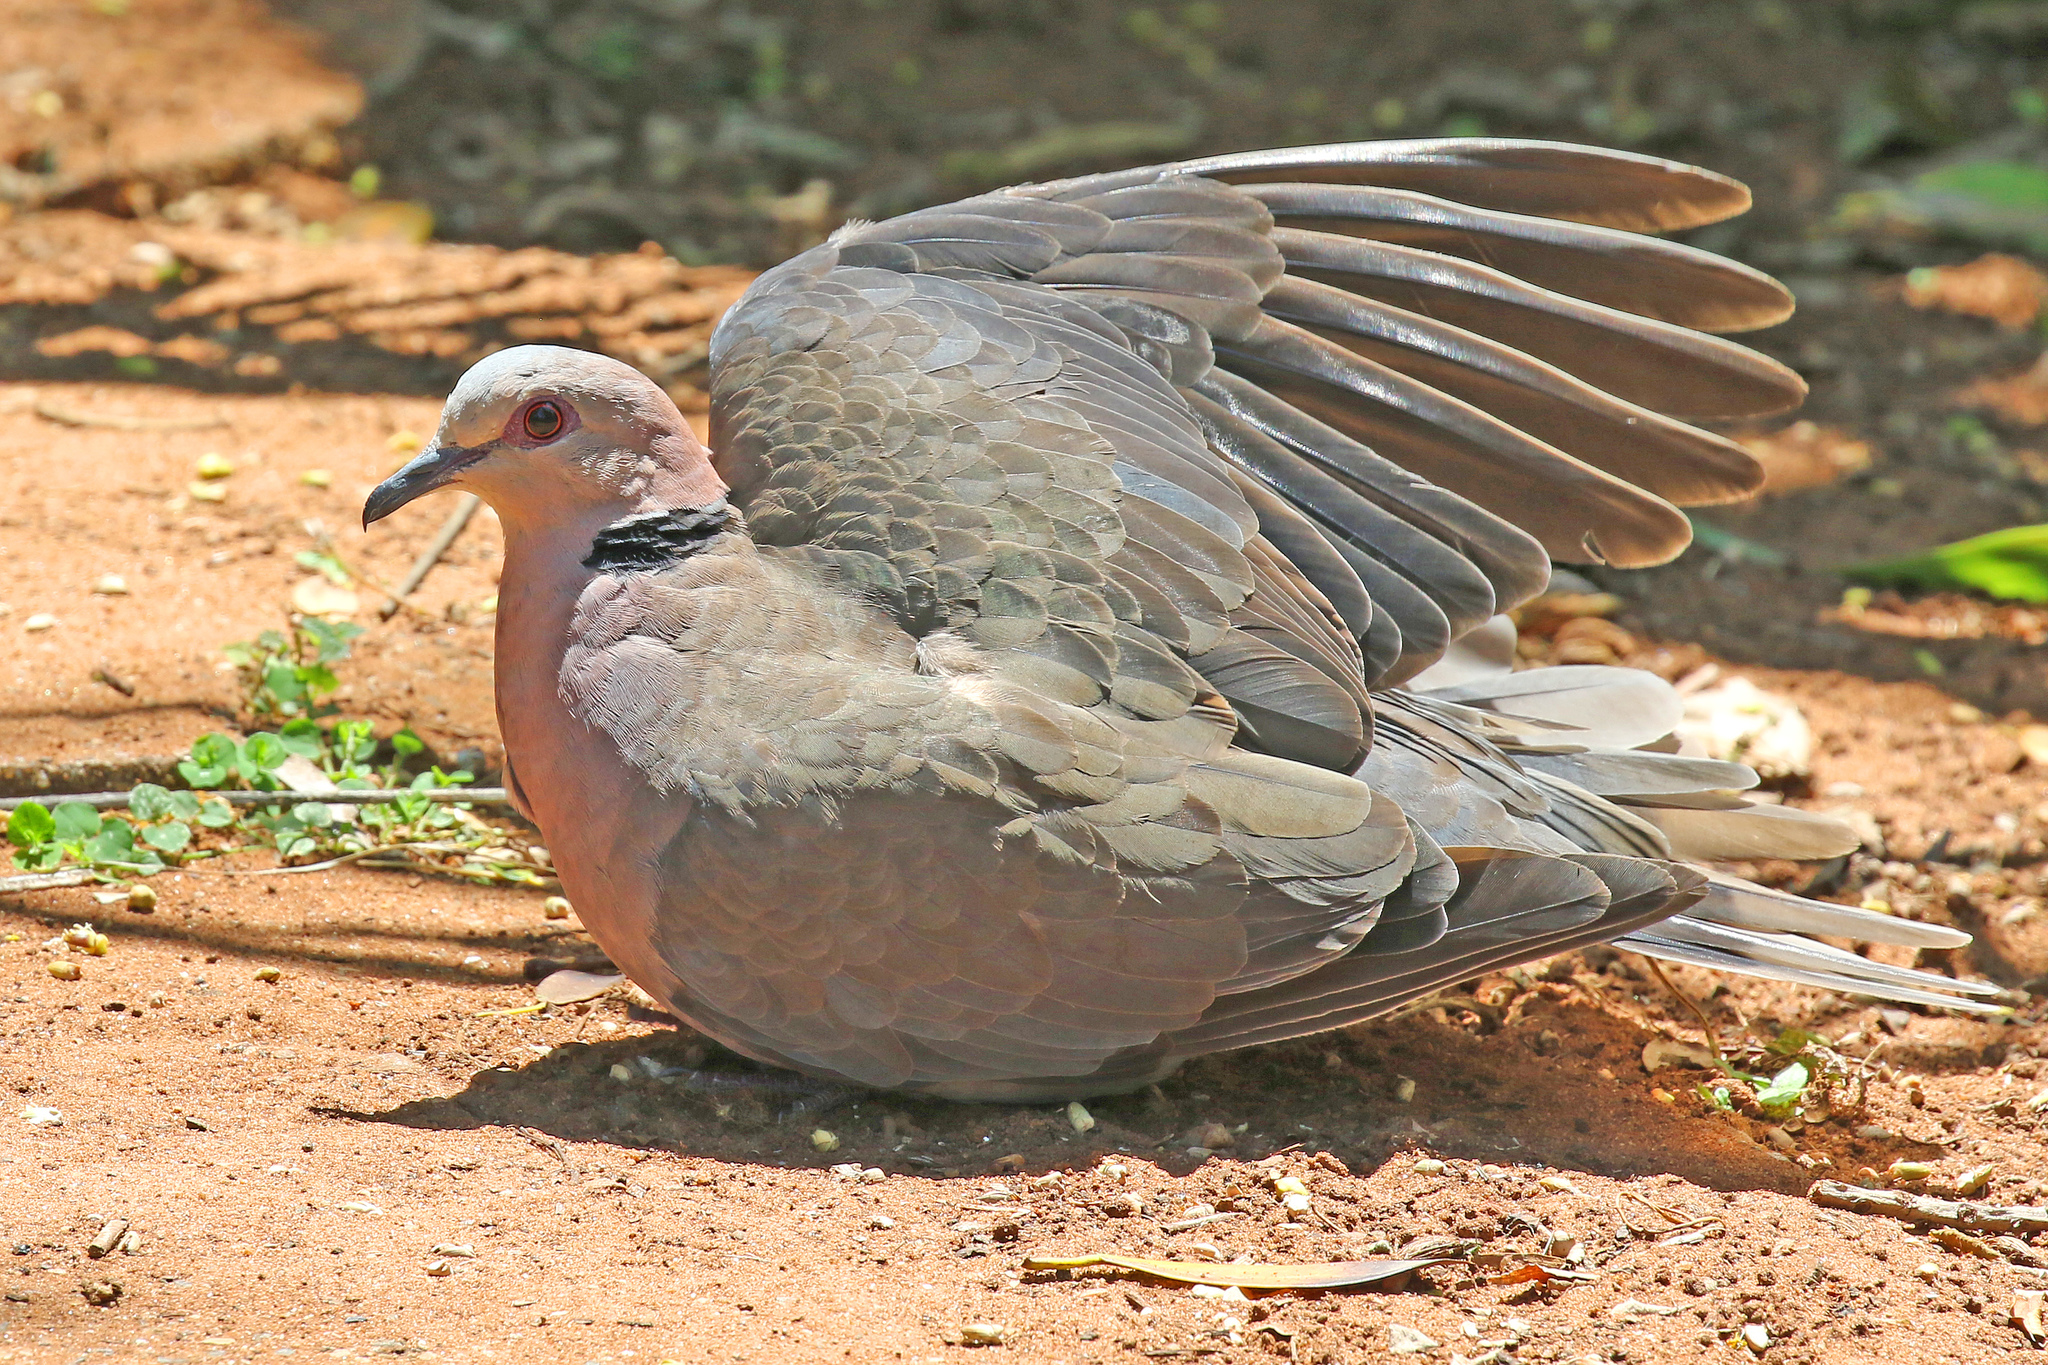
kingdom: Animalia
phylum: Chordata
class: Aves
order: Columbiformes
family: Columbidae
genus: Streptopelia
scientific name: Streptopelia semitorquata
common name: Red-eyed dove
